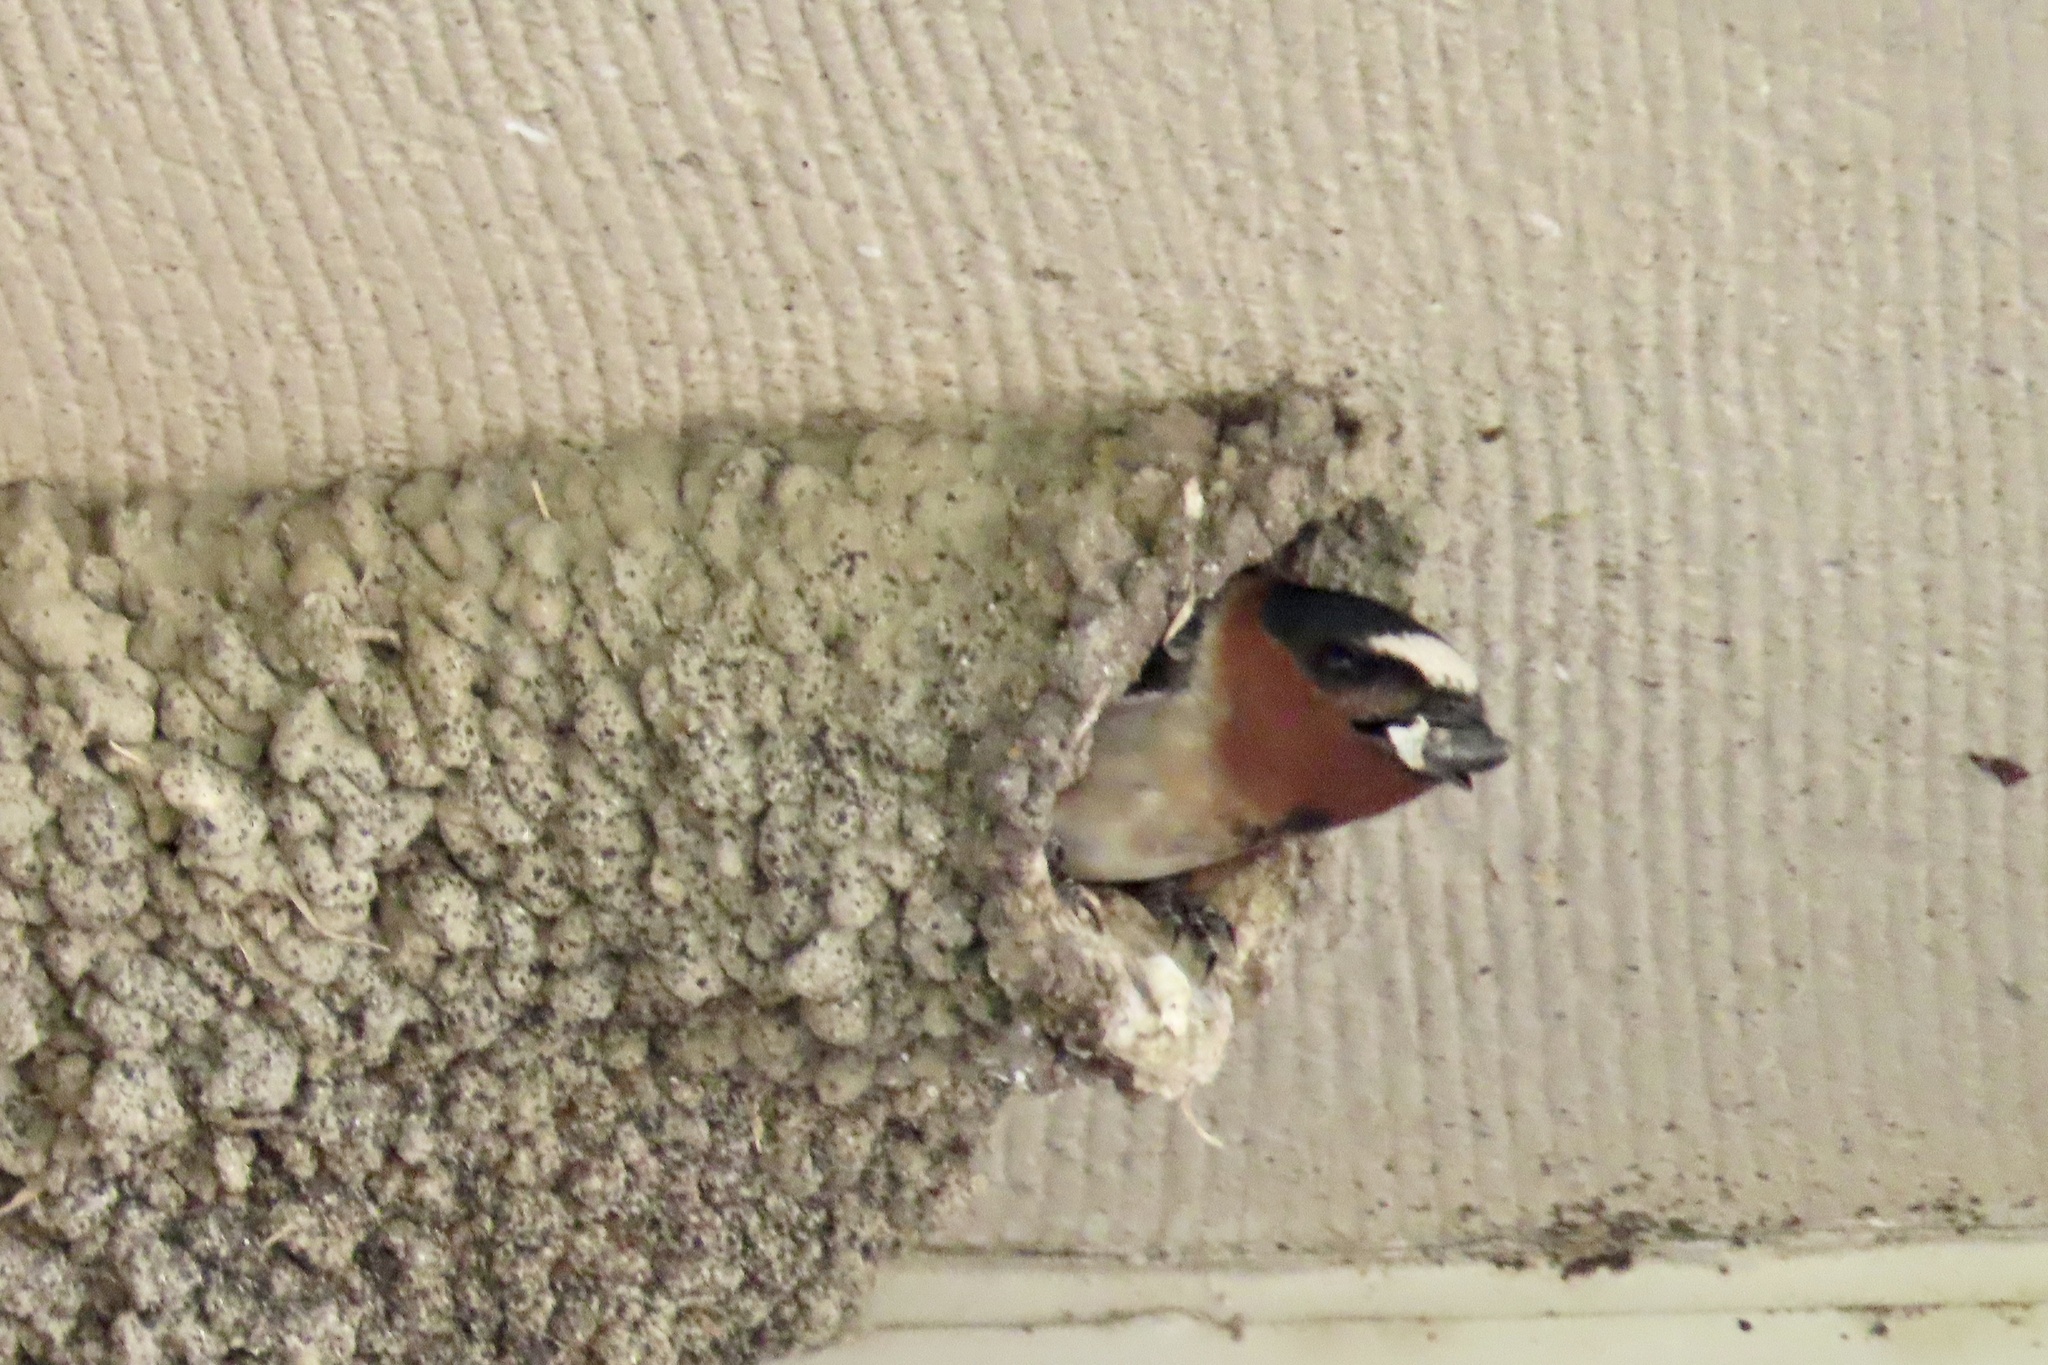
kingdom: Animalia
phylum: Chordata
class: Aves
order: Passeriformes
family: Hirundinidae
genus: Petrochelidon
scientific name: Petrochelidon pyrrhonota
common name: American cliff swallow
